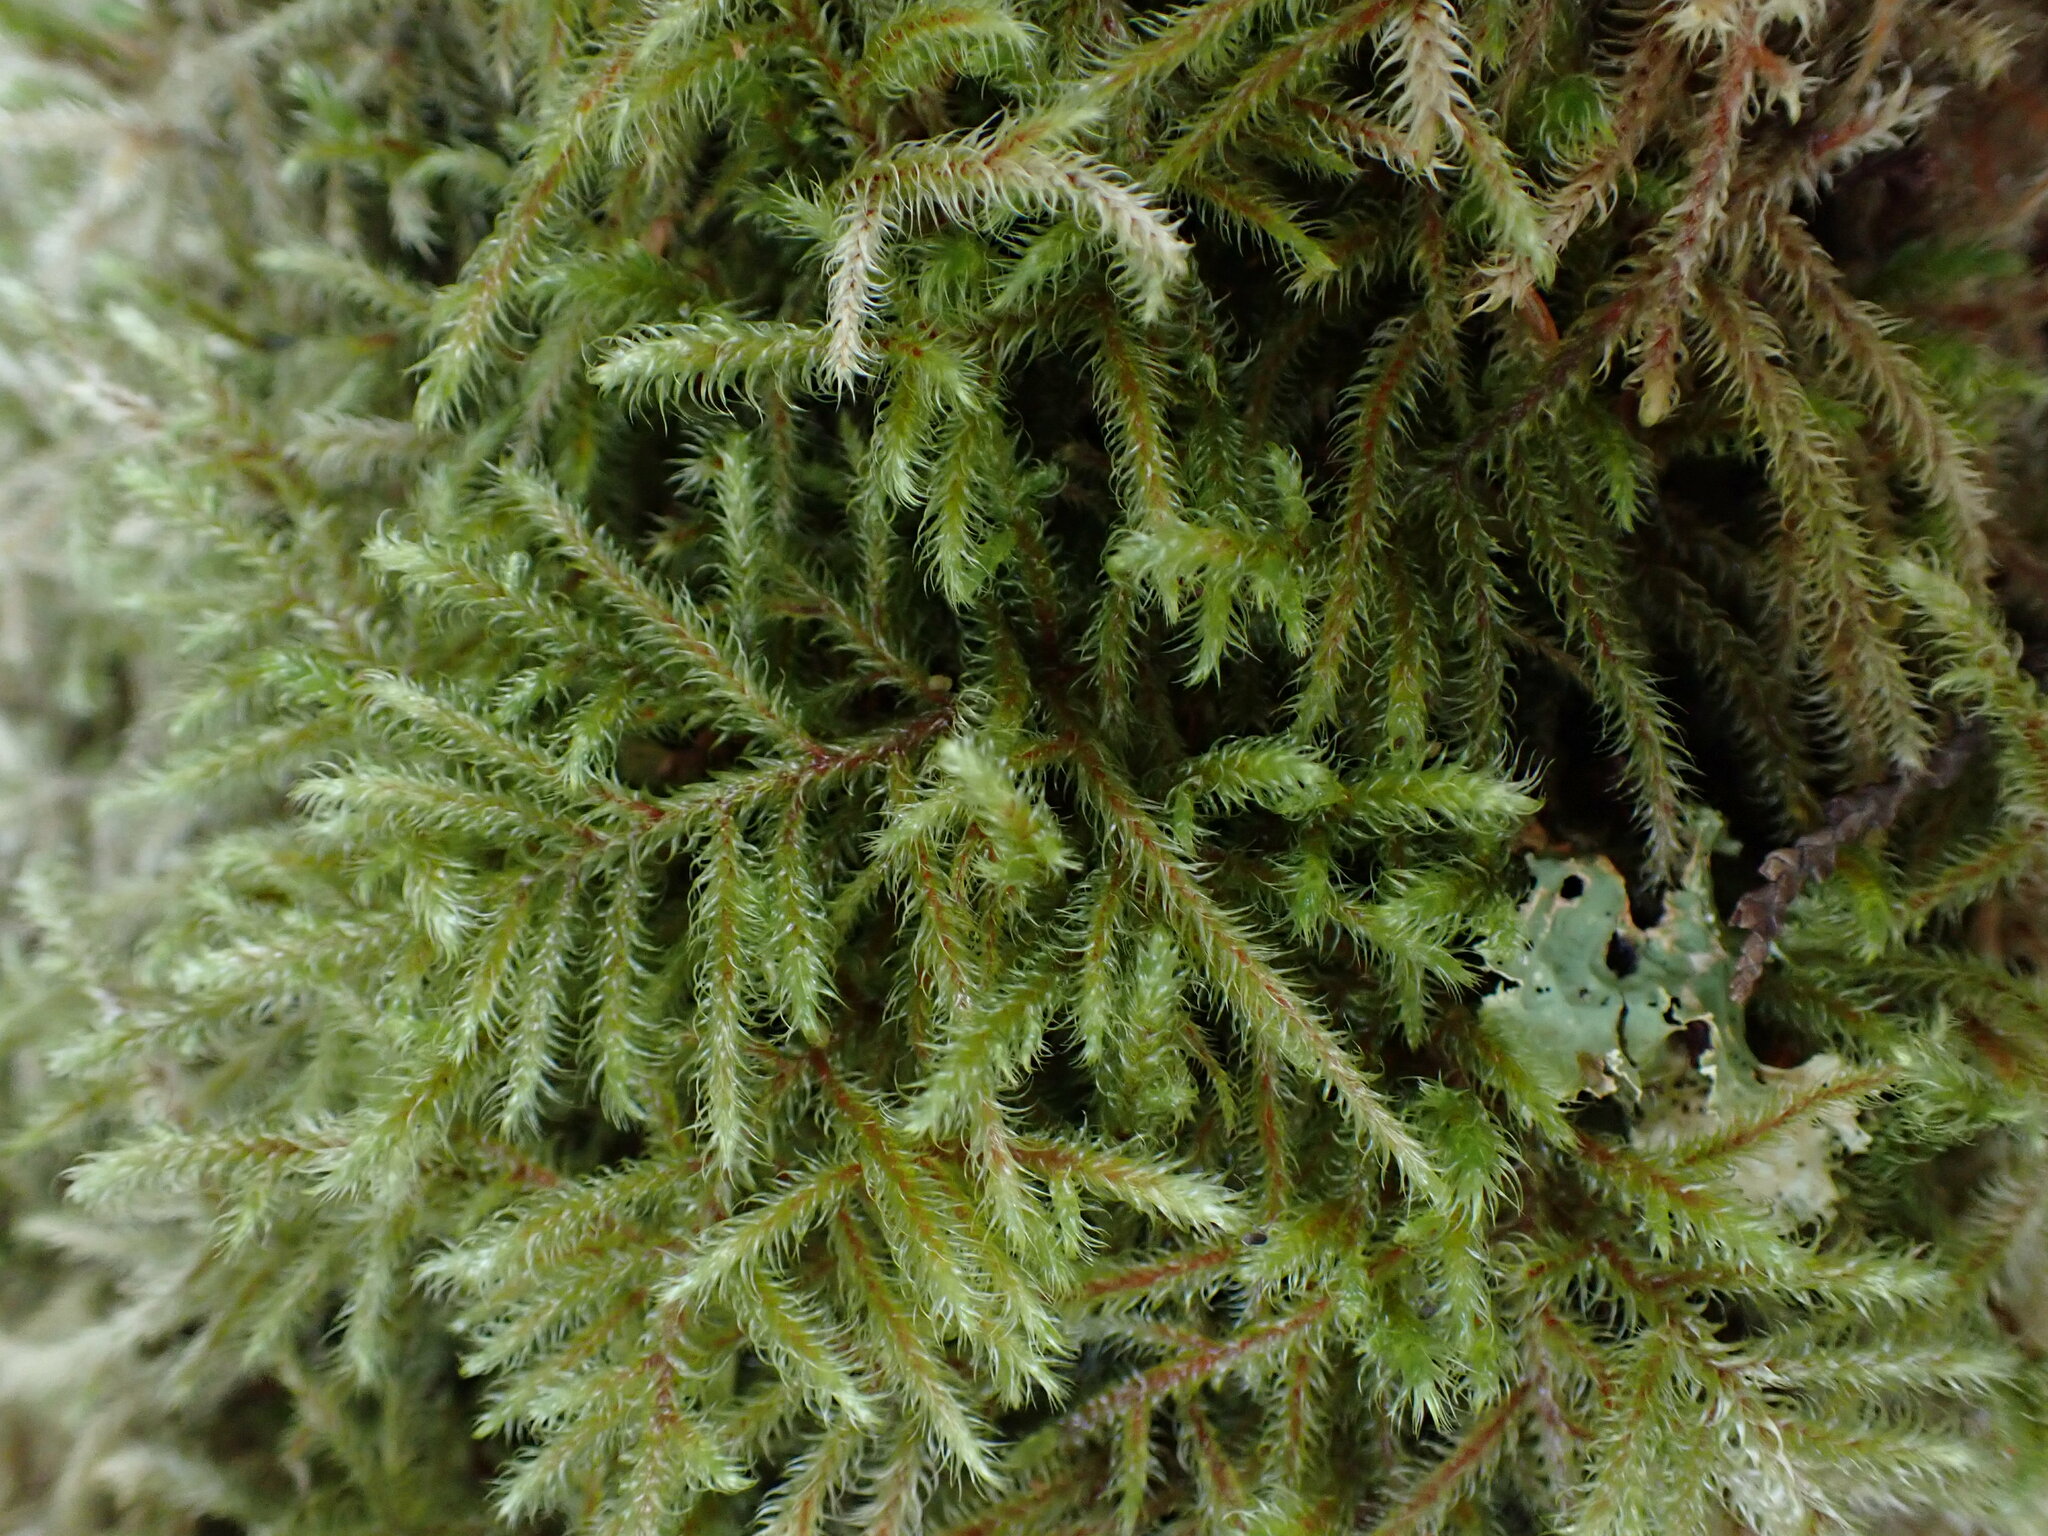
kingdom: Plantae
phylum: Bryophyta
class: Bryopsida
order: Hypnales
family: Hylocomiaceae
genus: Rhytidiadelphus
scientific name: Rhytidiadelphus loreus
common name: Lanky moss
